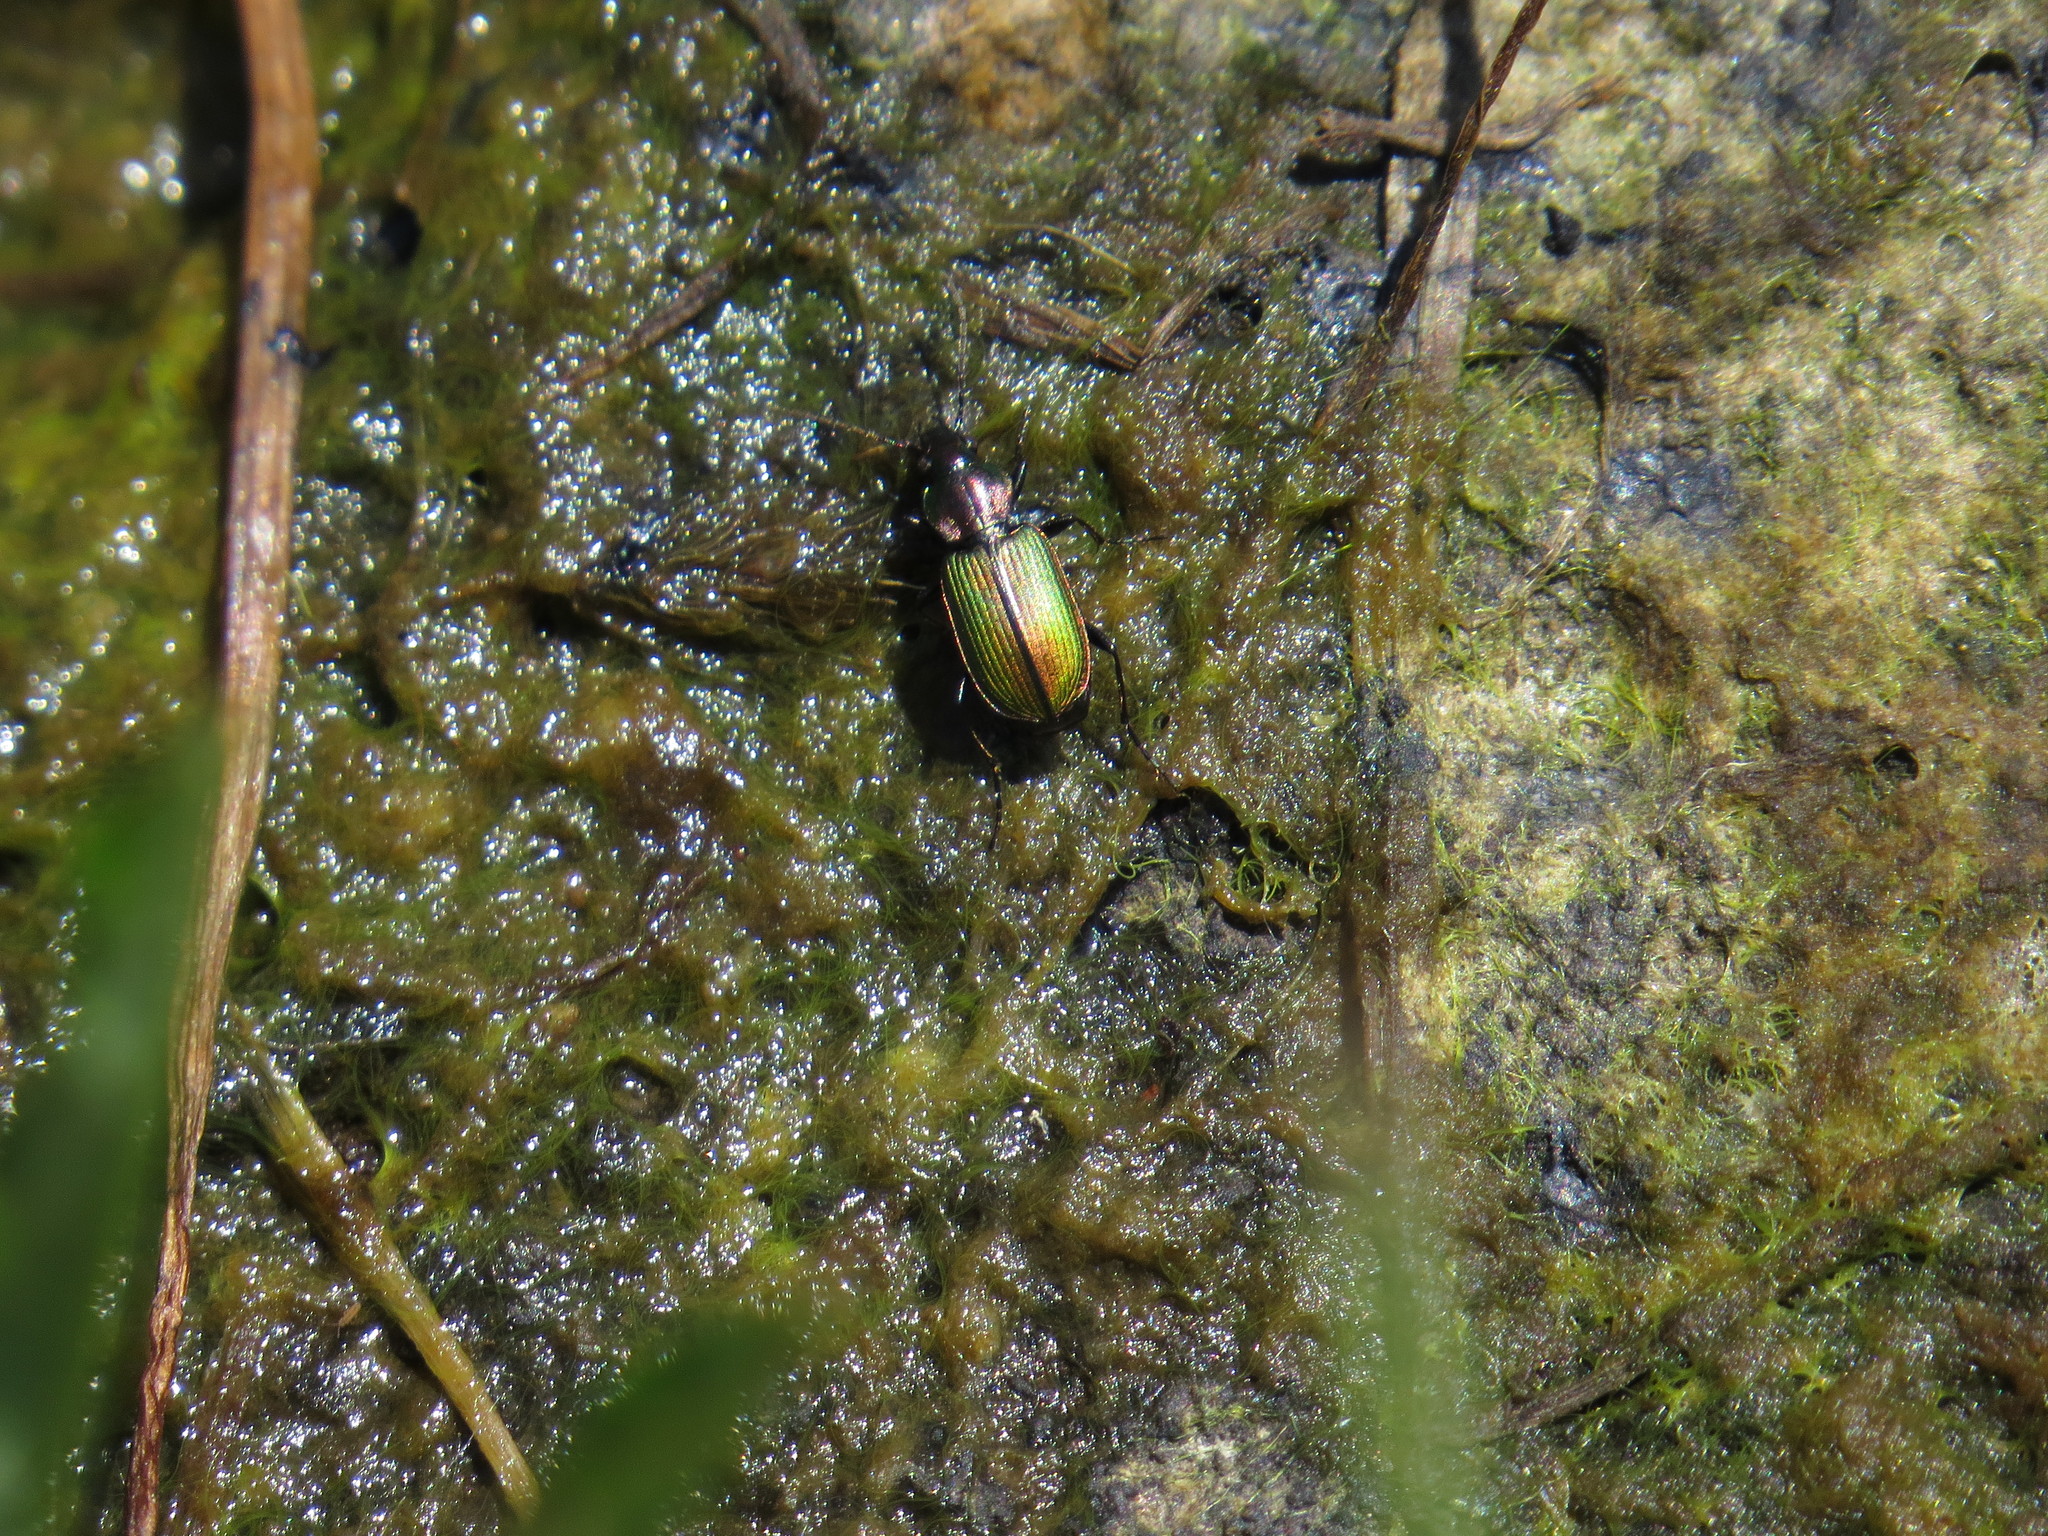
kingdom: Animalia
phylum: Arthropoda
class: Insecta
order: Coleoptera
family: Carabidae
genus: Agonum
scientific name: Agonum viridicupreum
